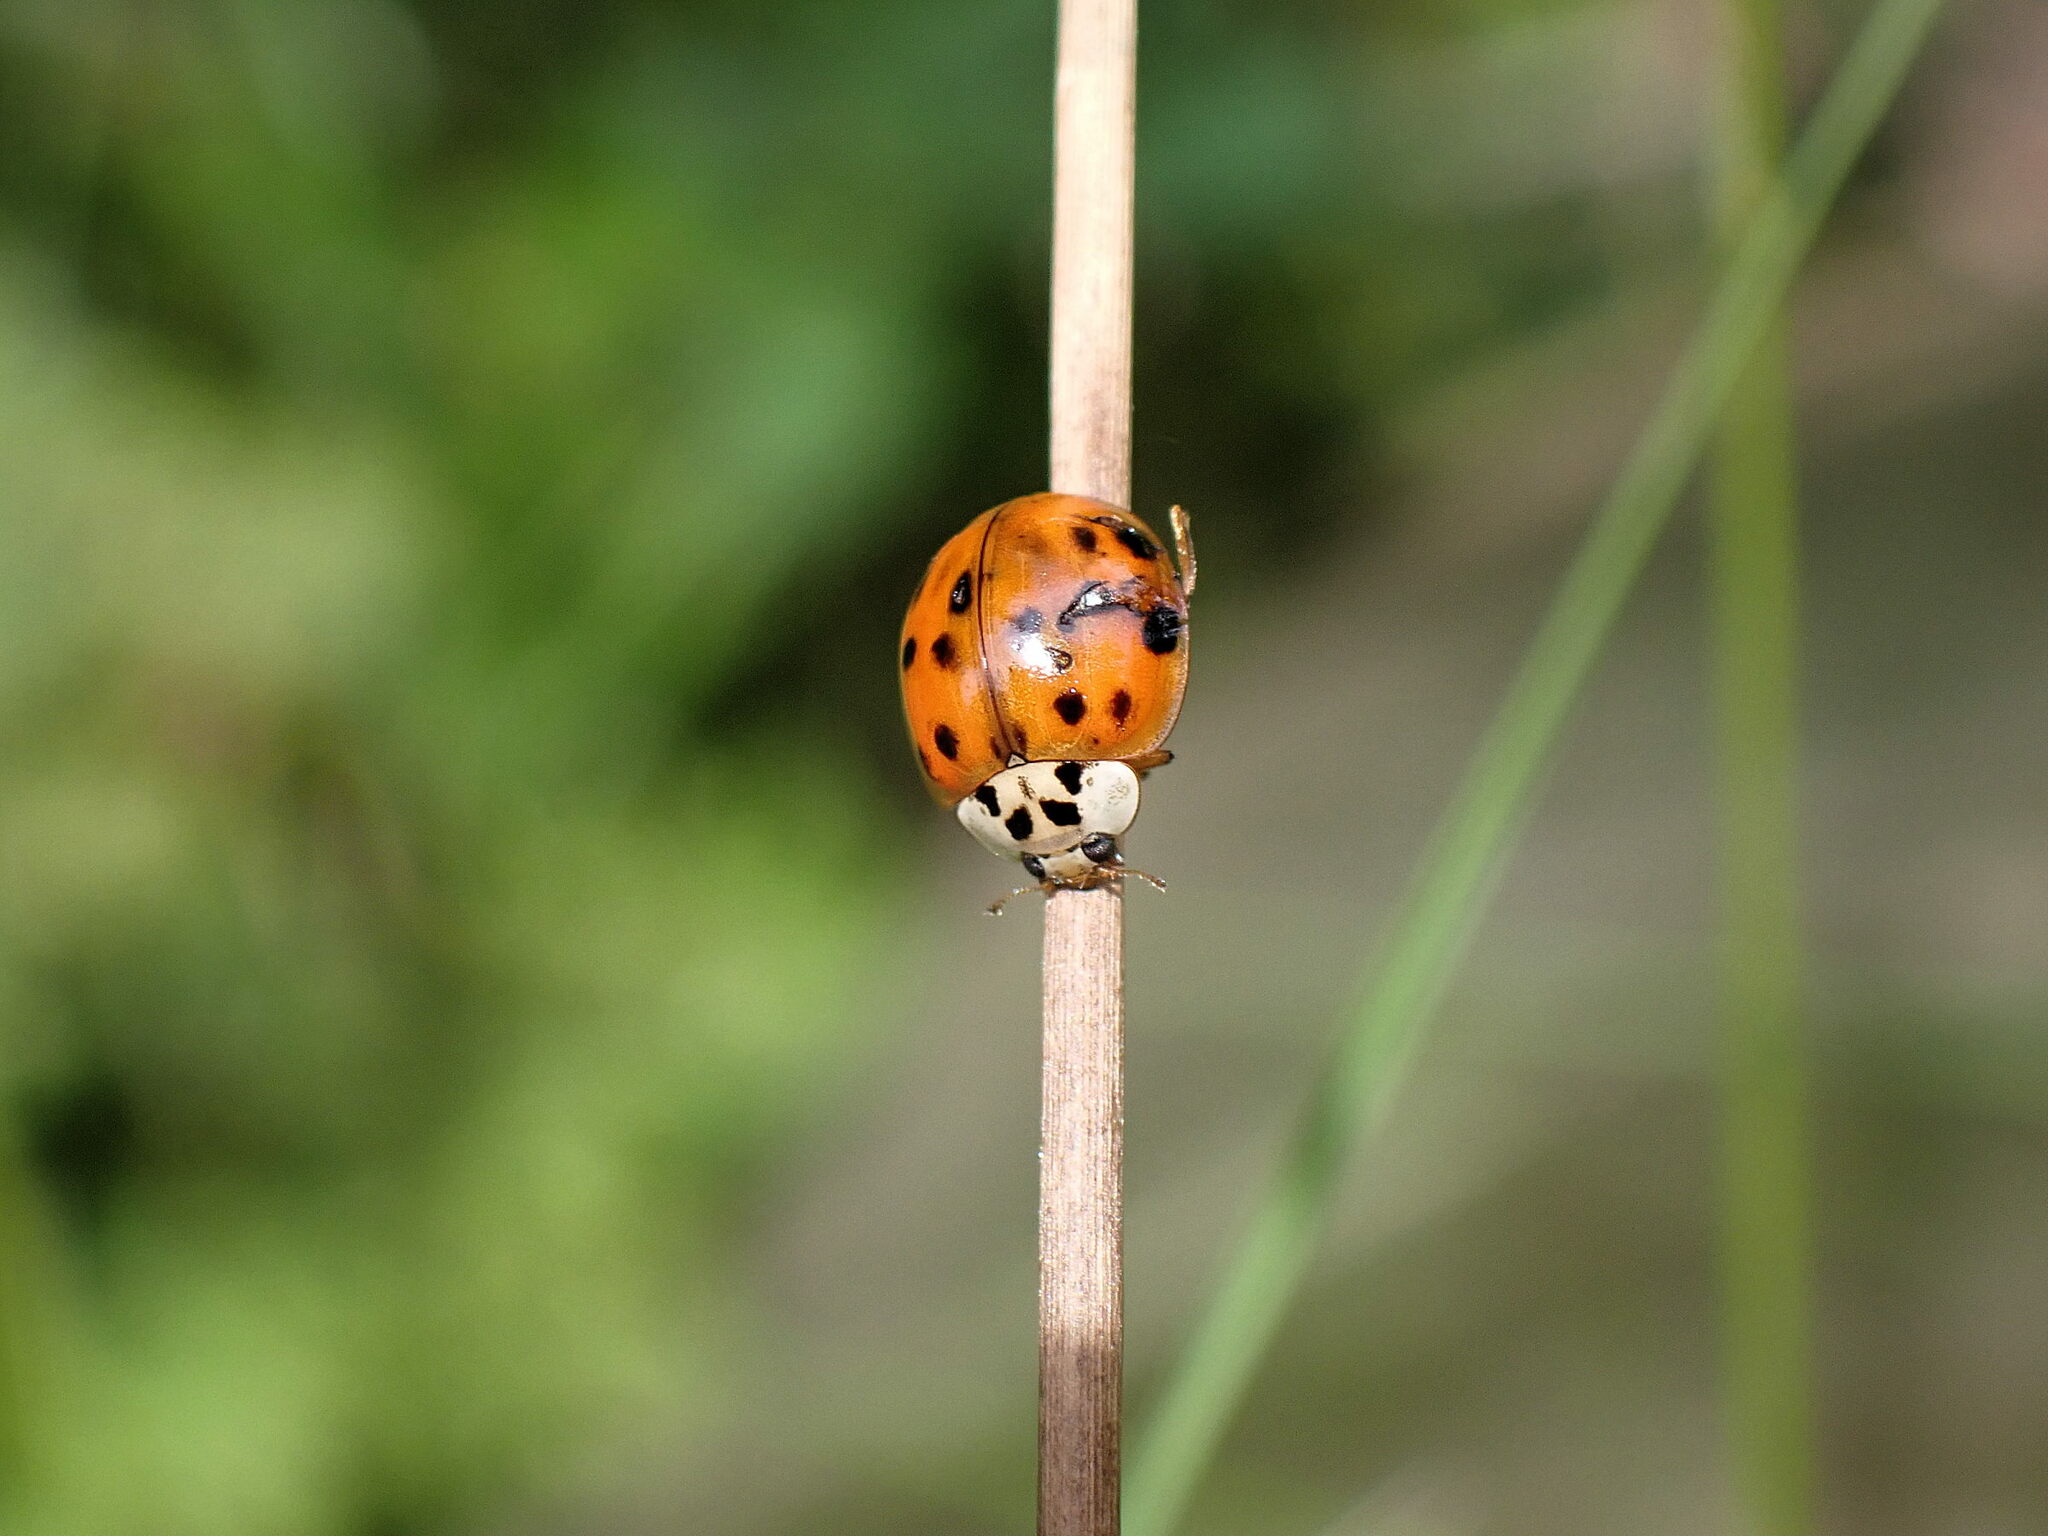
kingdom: Animalia
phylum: Arthropoda
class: Insecta
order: Coleoptera
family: Coccinellidae
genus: Harmonia
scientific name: Harmonia axyridis
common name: Harlequin ladybird
